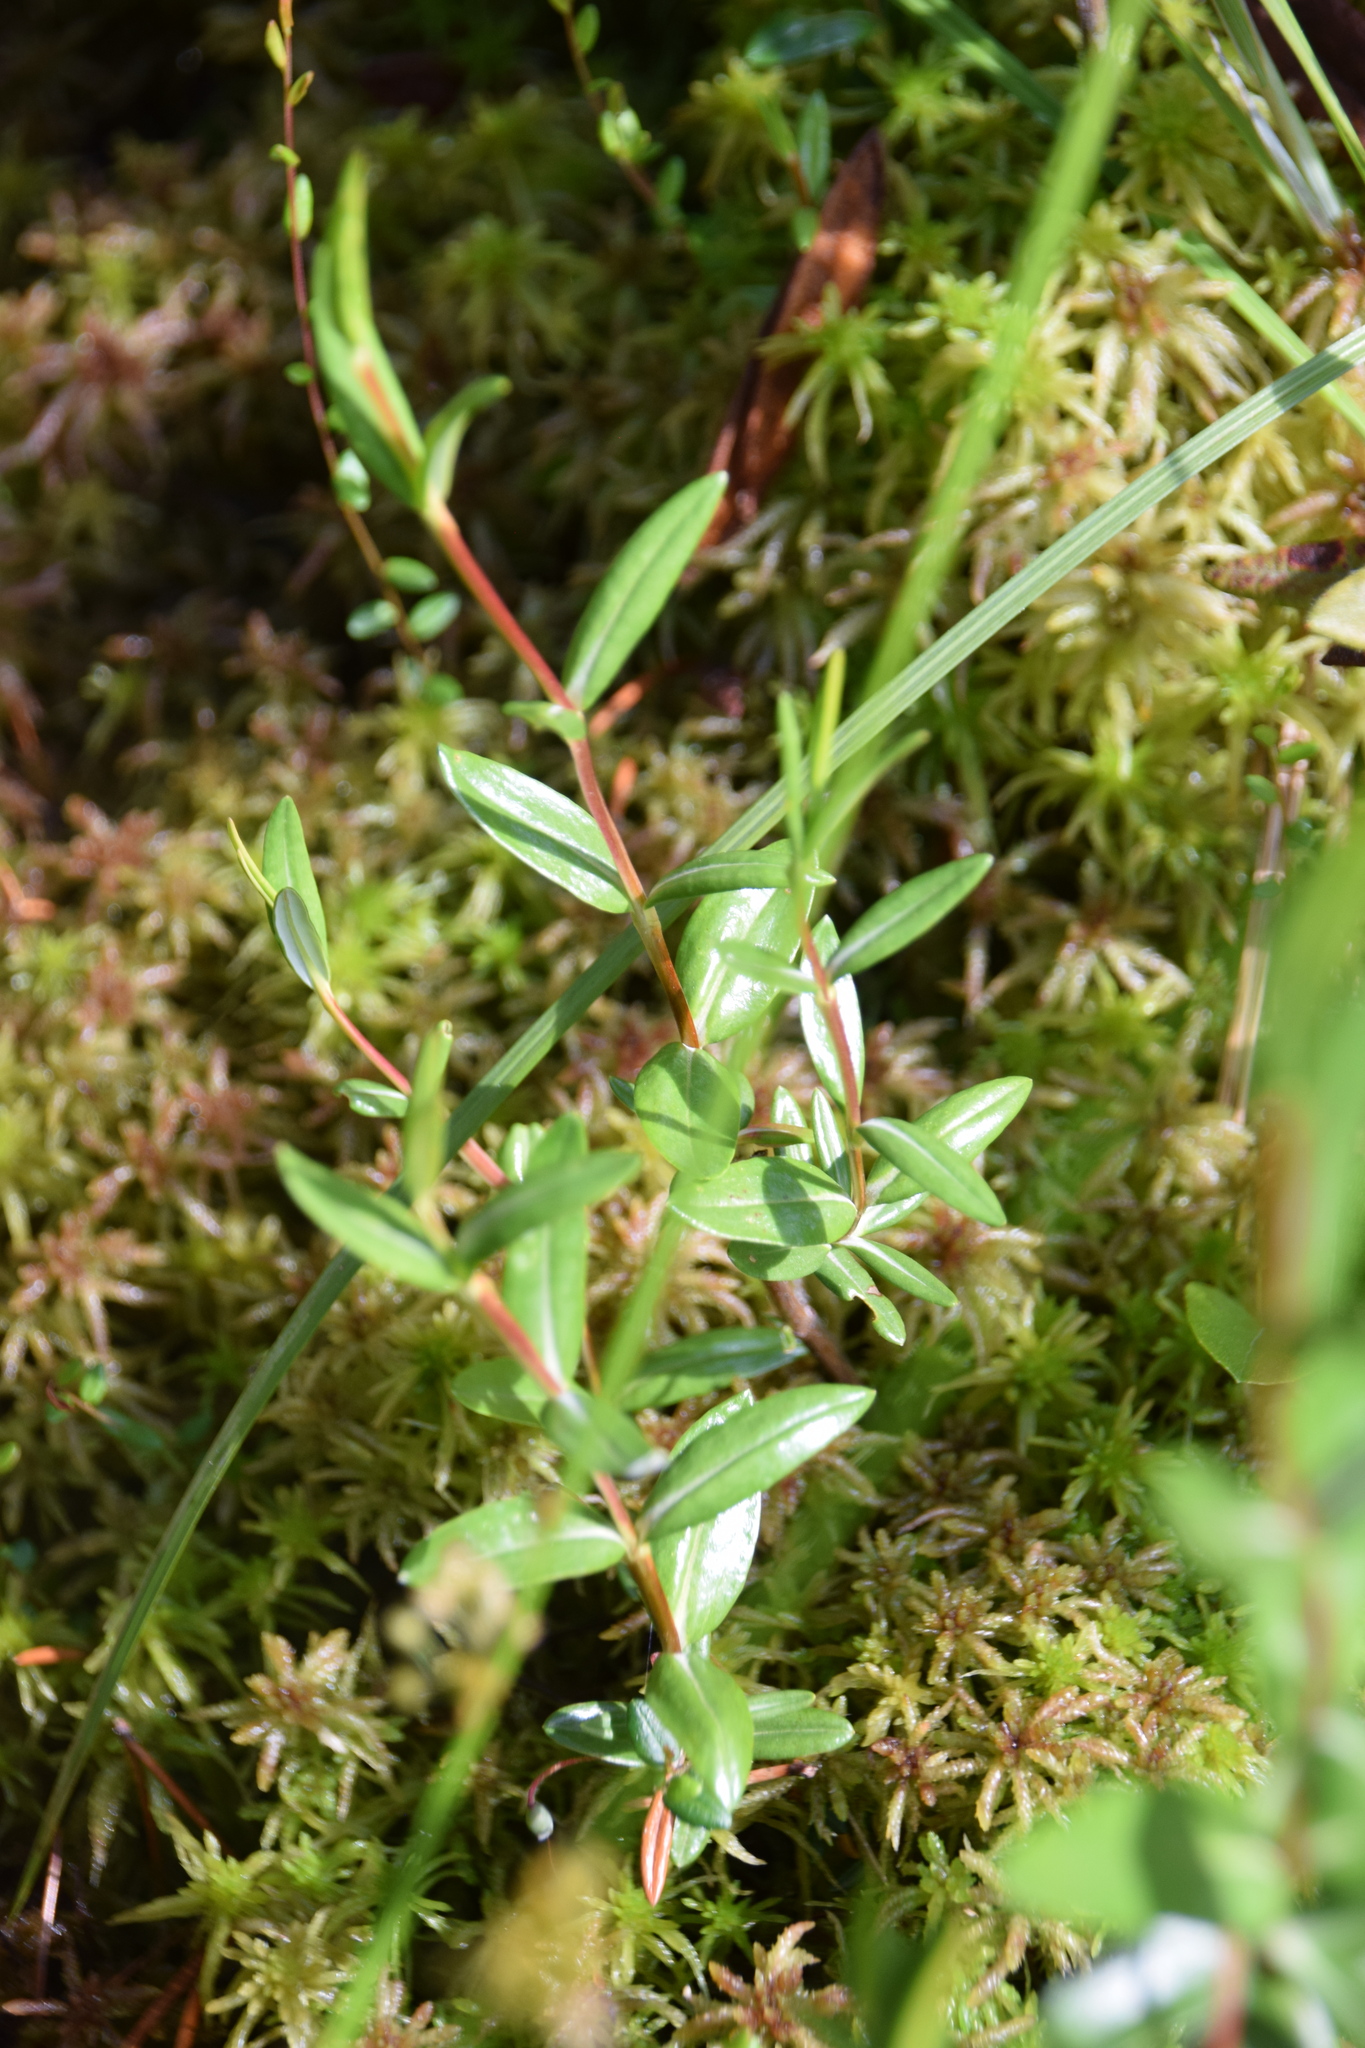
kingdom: Plantae
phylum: Tracheophyta
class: Magnoliopsida
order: Ericales
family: Ericaceae
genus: Kalmia
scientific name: Kalmia polifolia
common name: Bog-laurel
